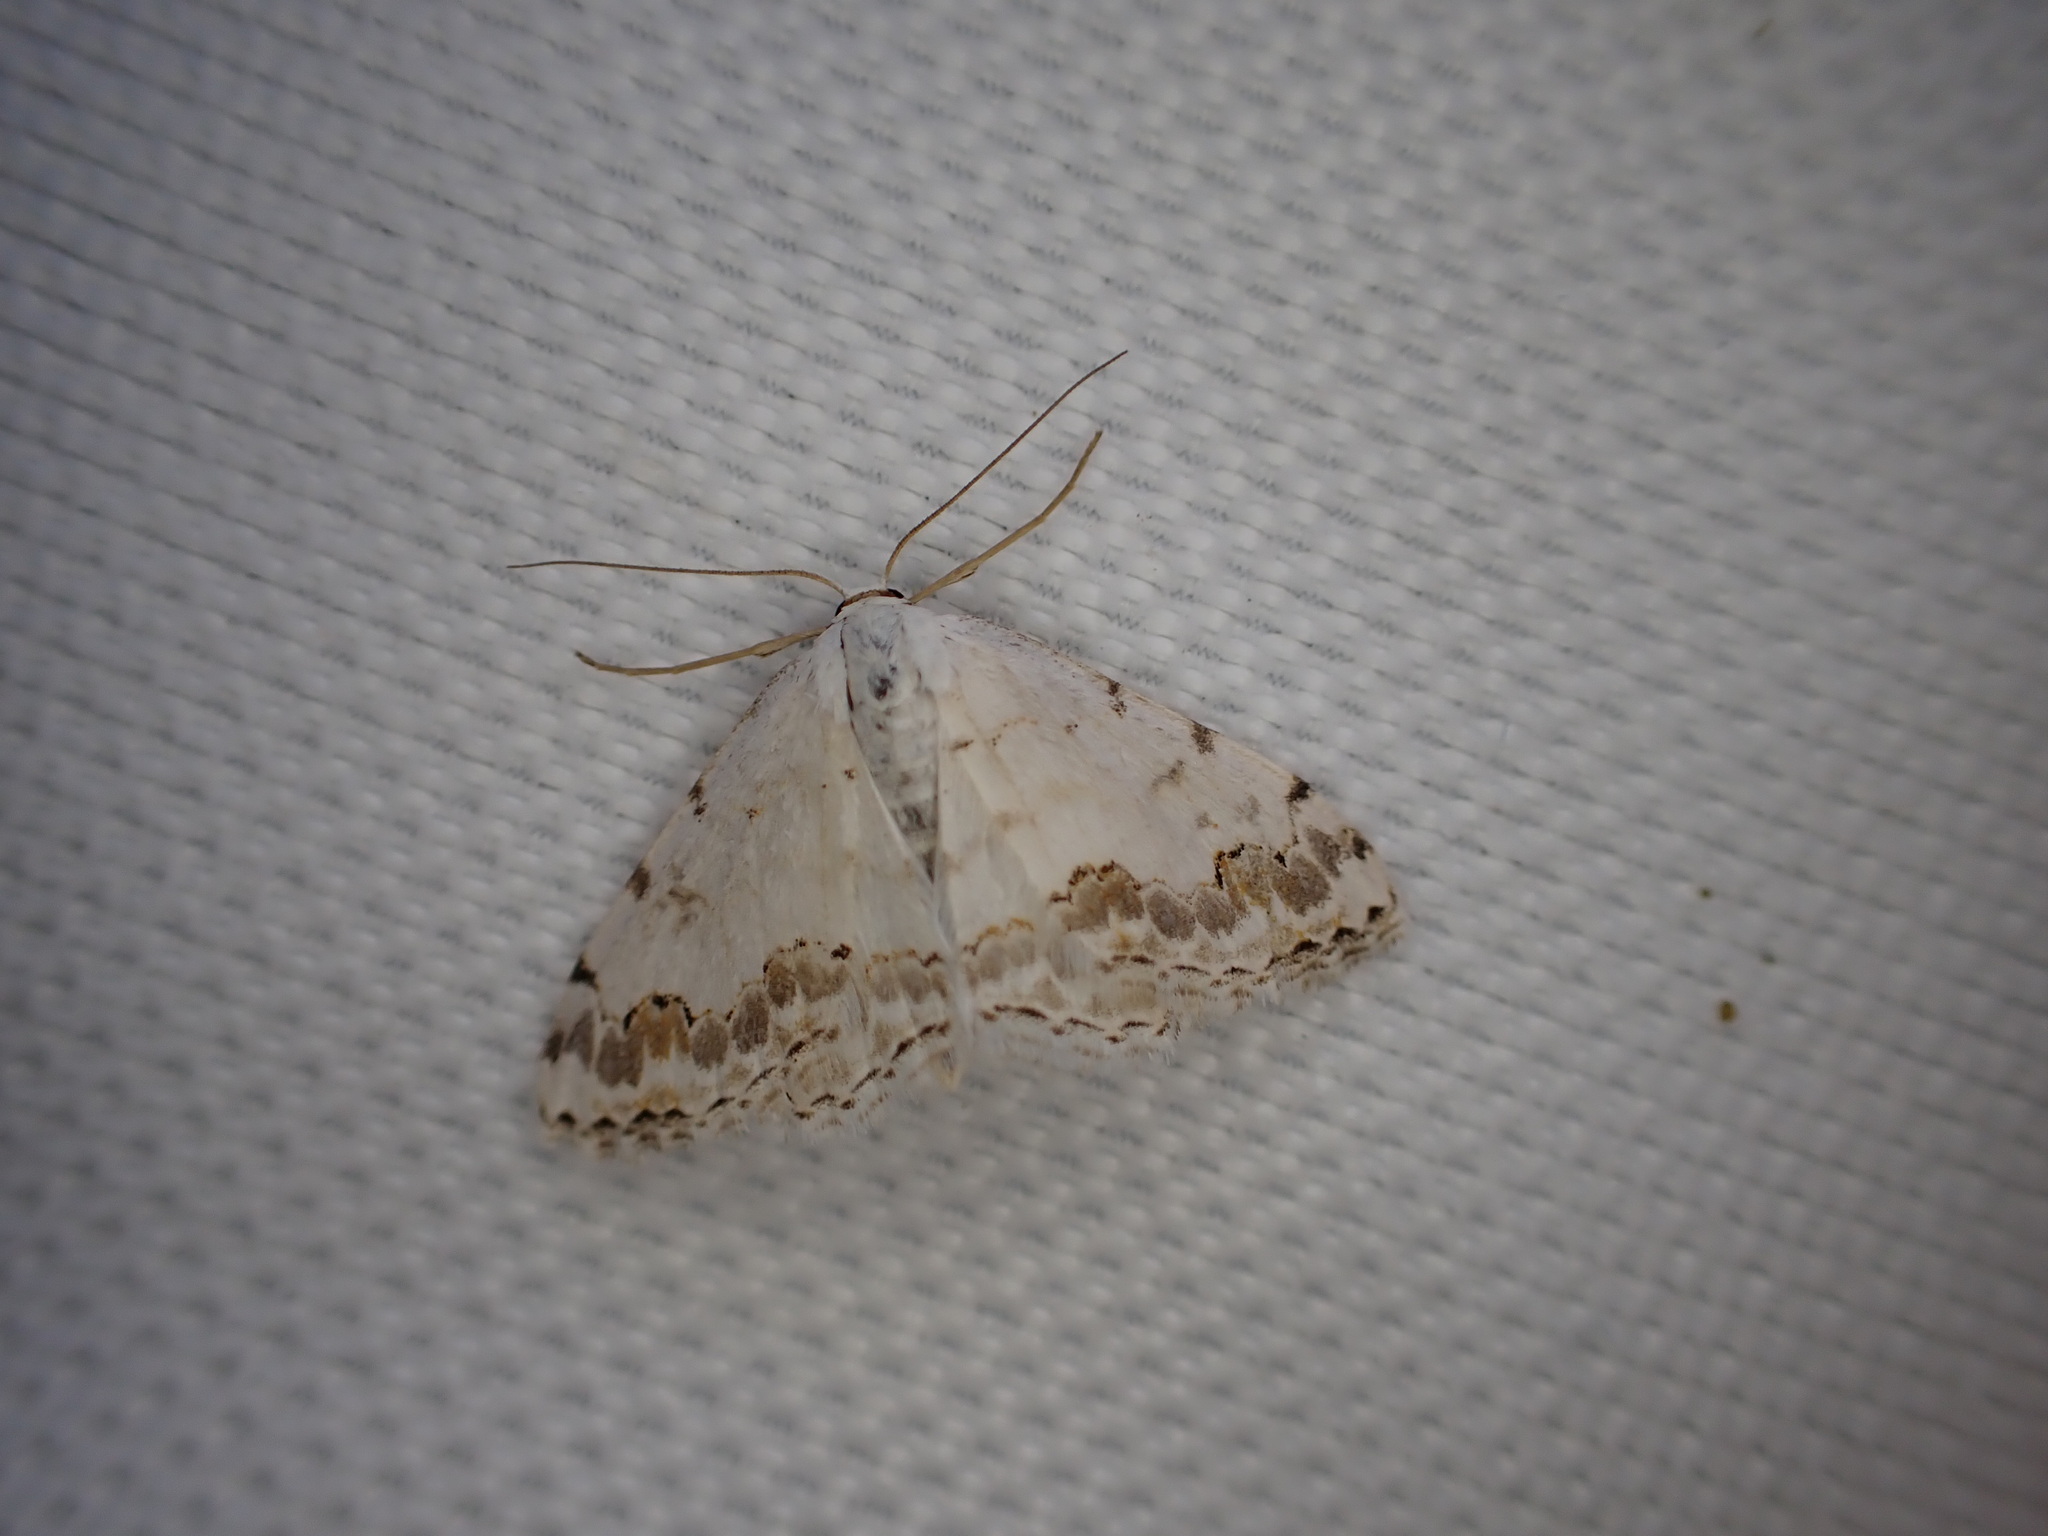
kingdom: Animalia
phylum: Arthropoda
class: Insecta
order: Lepidoptera
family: Geometridae
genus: Scopula
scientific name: Scopula decorata
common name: Middle lace border
